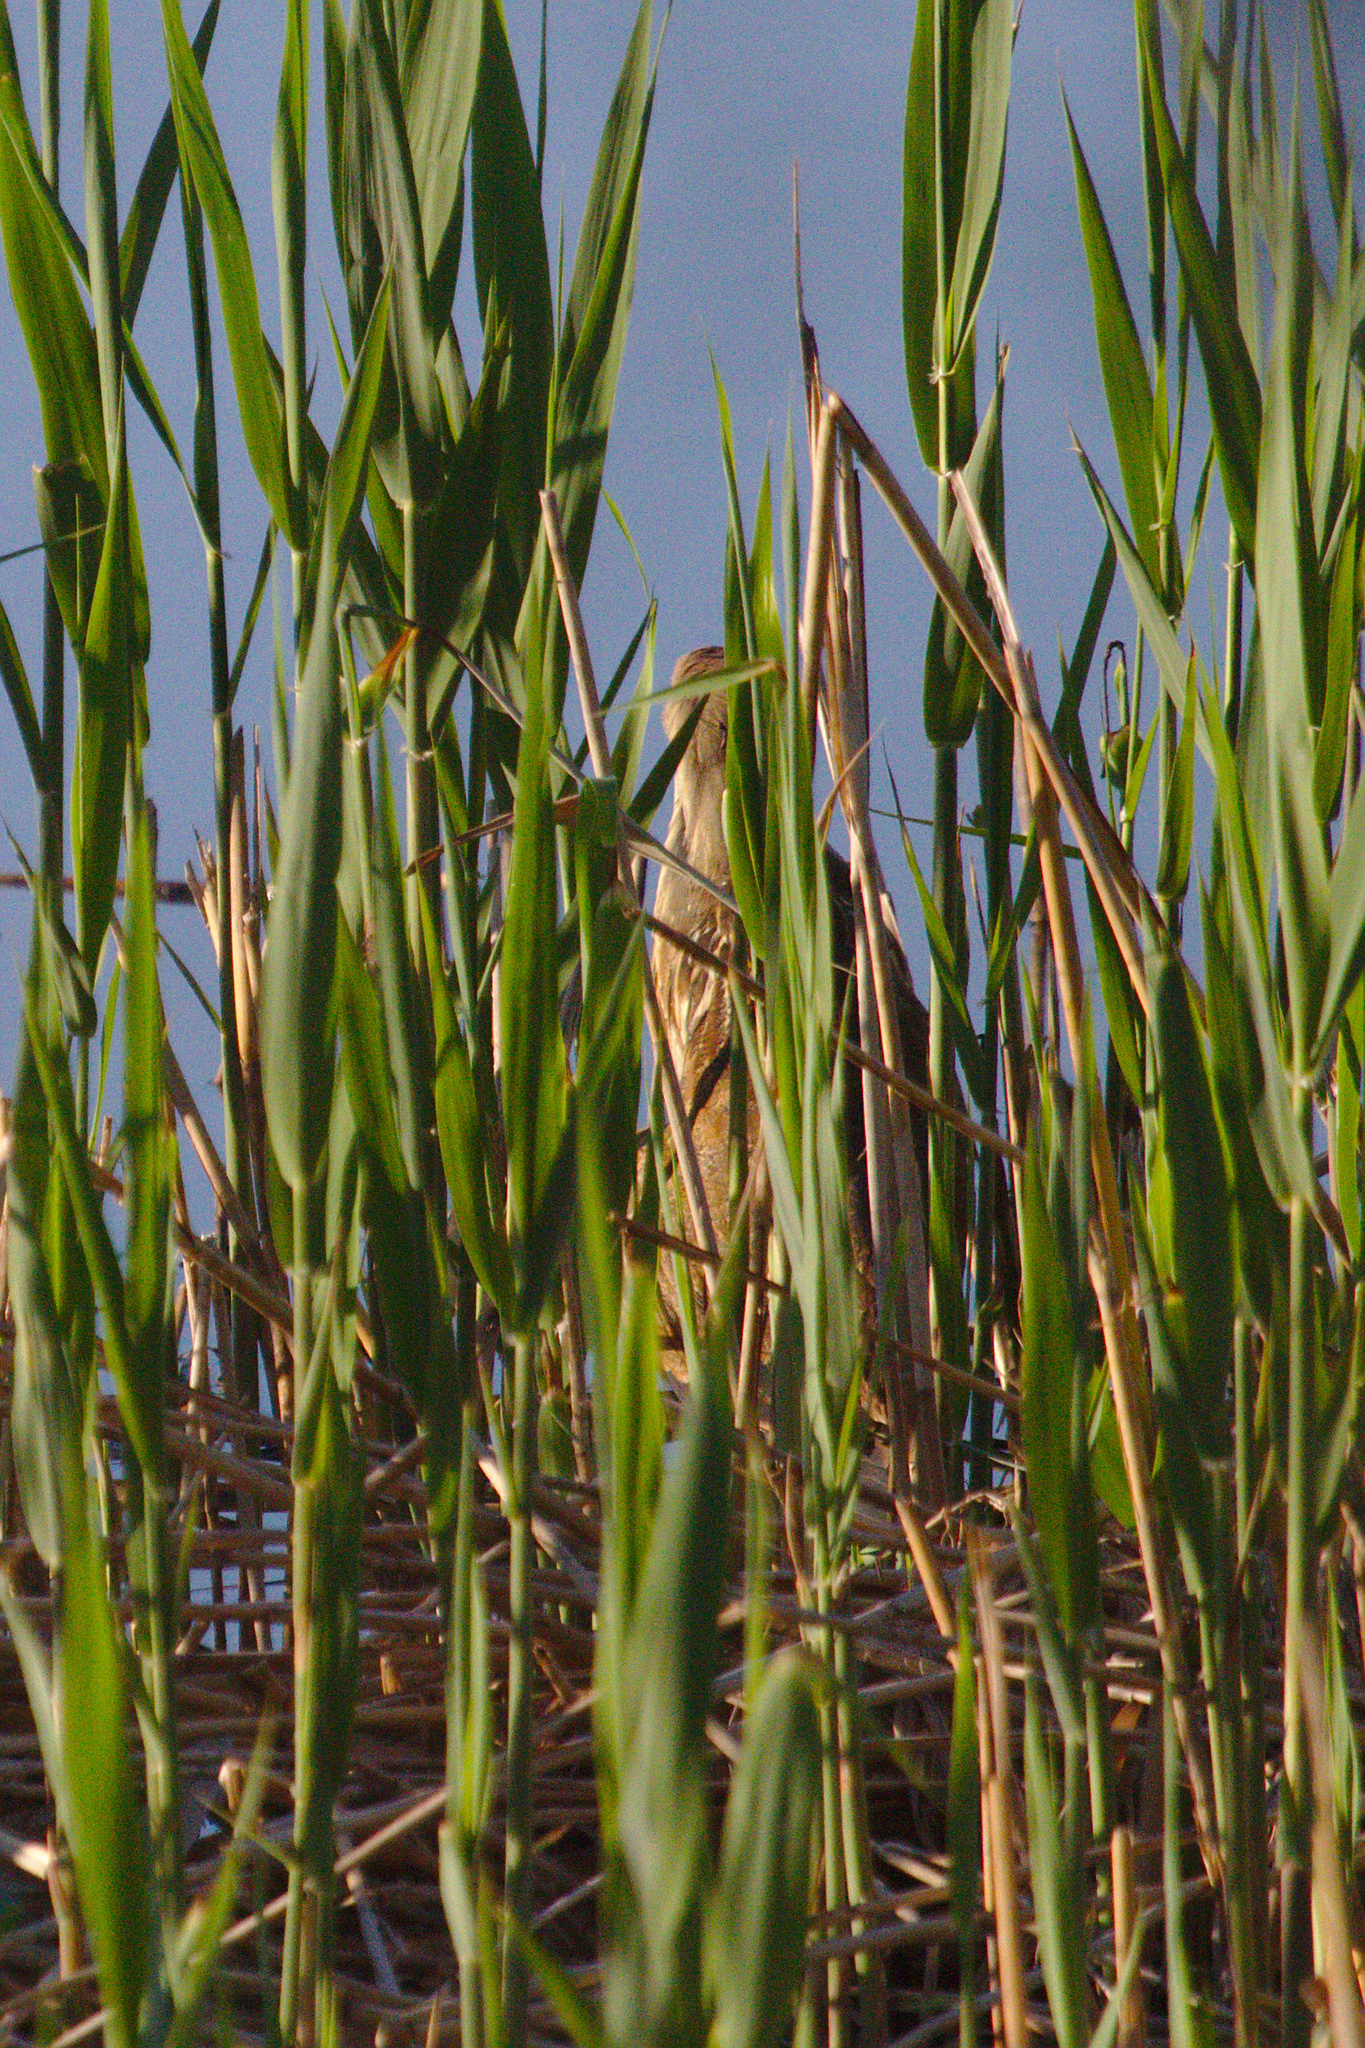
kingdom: Animalia
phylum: Chordata
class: Aves
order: Pelecaniformes
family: Ardeidae
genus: Botaurus
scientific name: Botaurus lentiginosus
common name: American bittern
